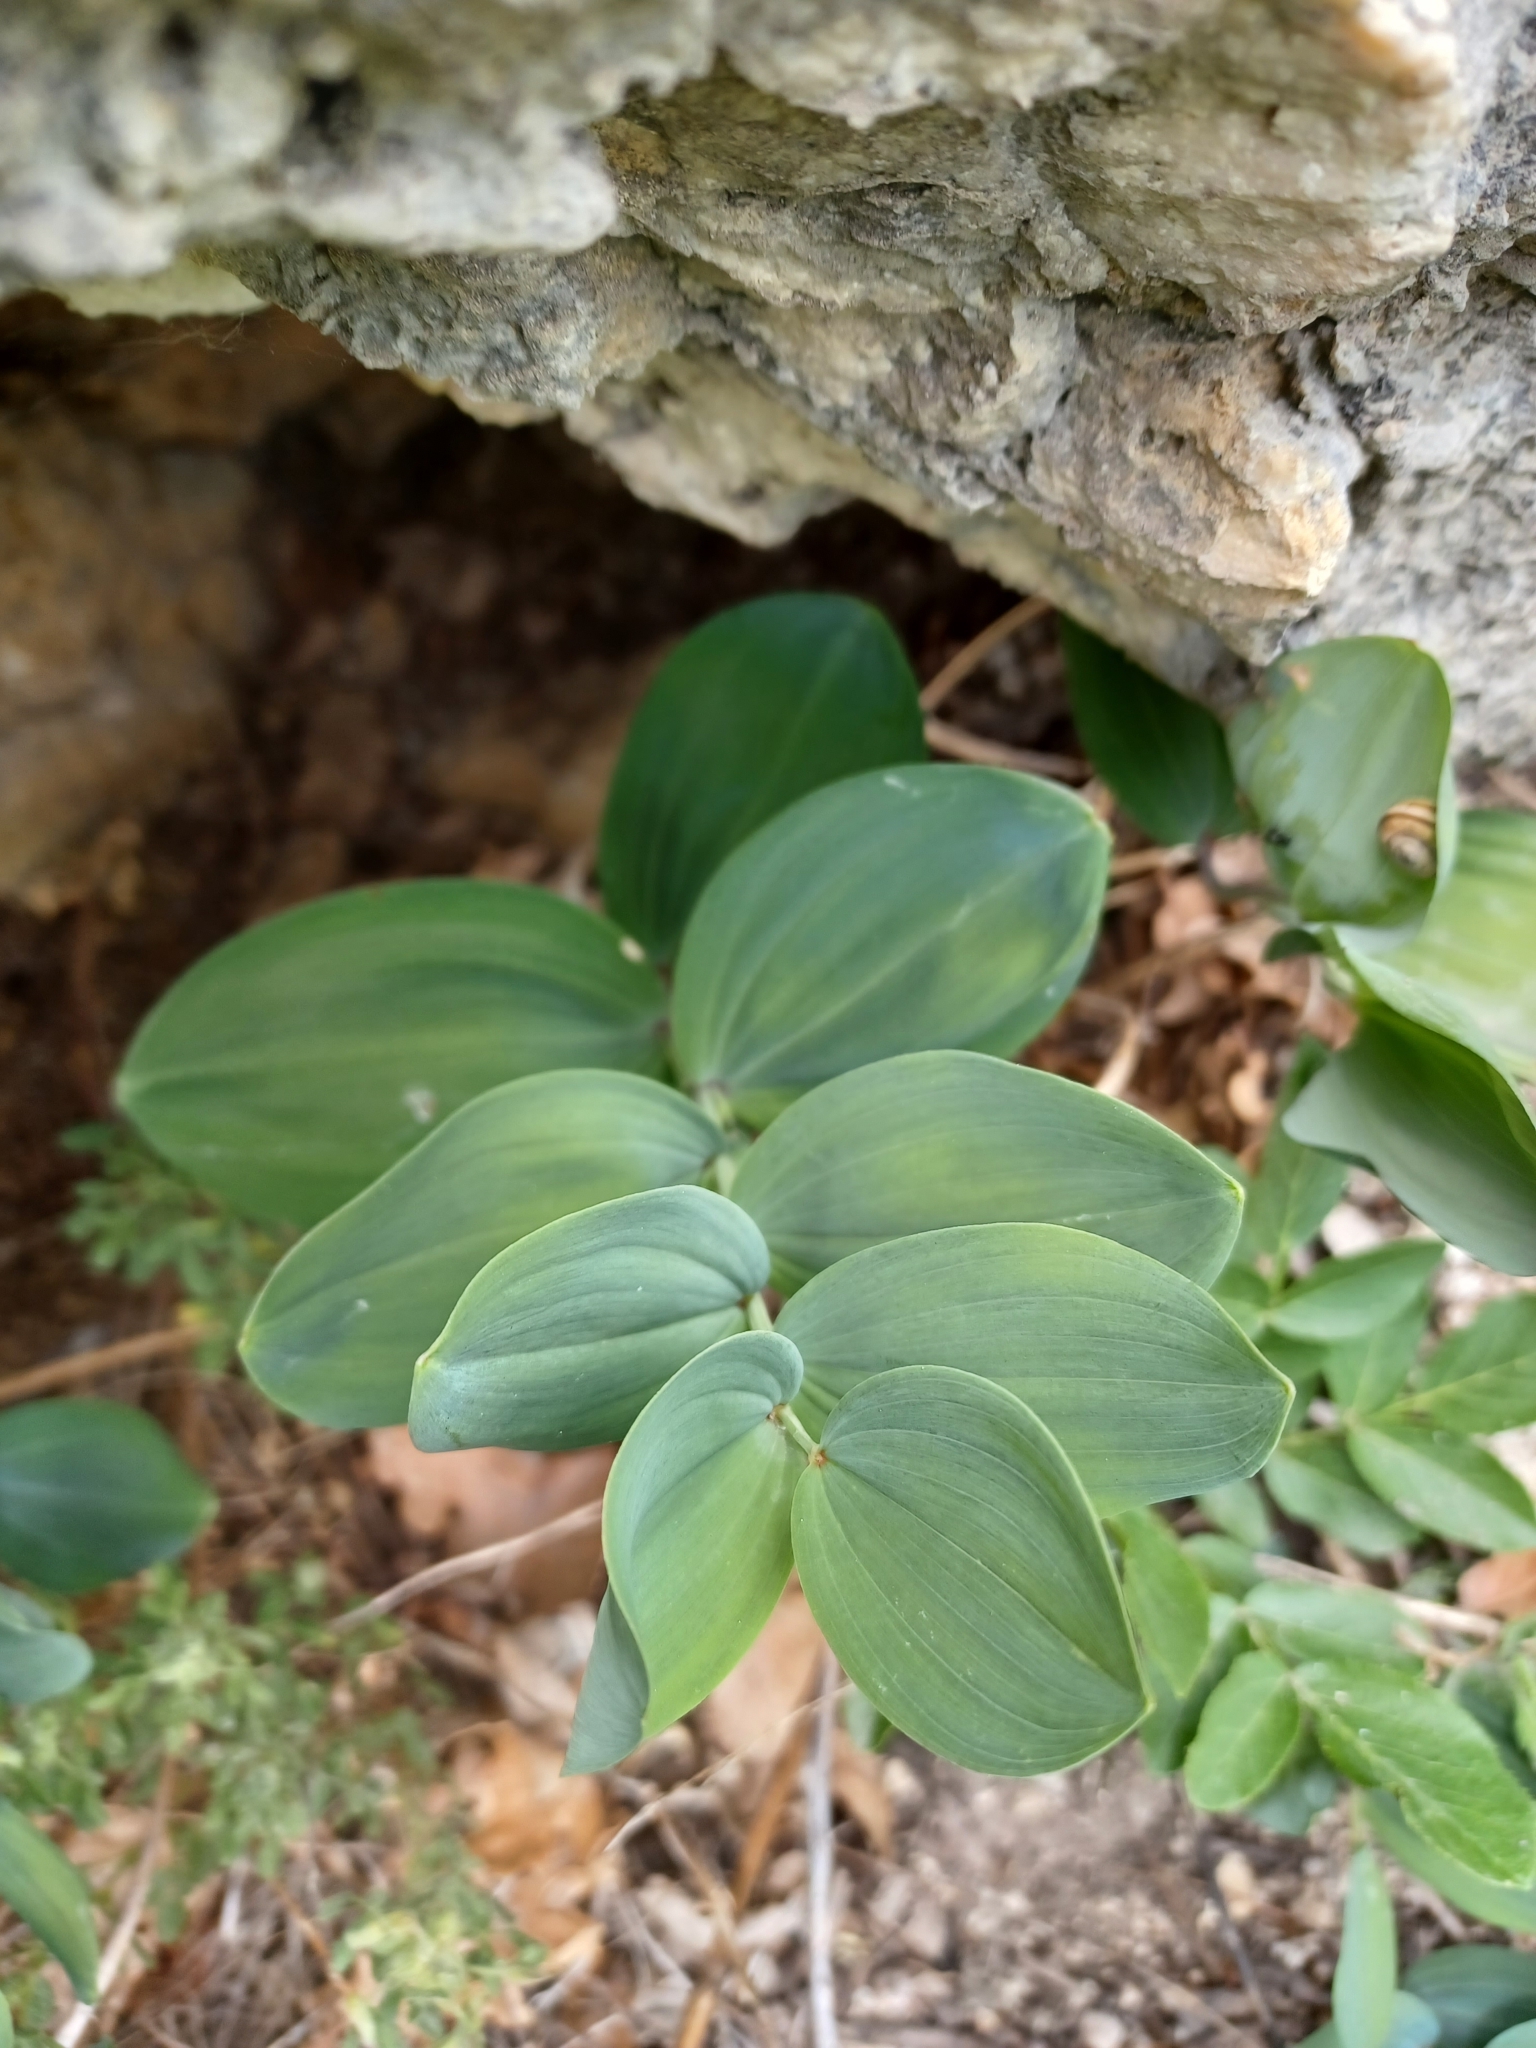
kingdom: Plantae
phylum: Tracheophyta
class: Liliopsida
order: Asparagales
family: Asparagaceae
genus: Polygonatum
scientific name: Polygonatum odoratum
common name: Angular solomon's-seal
